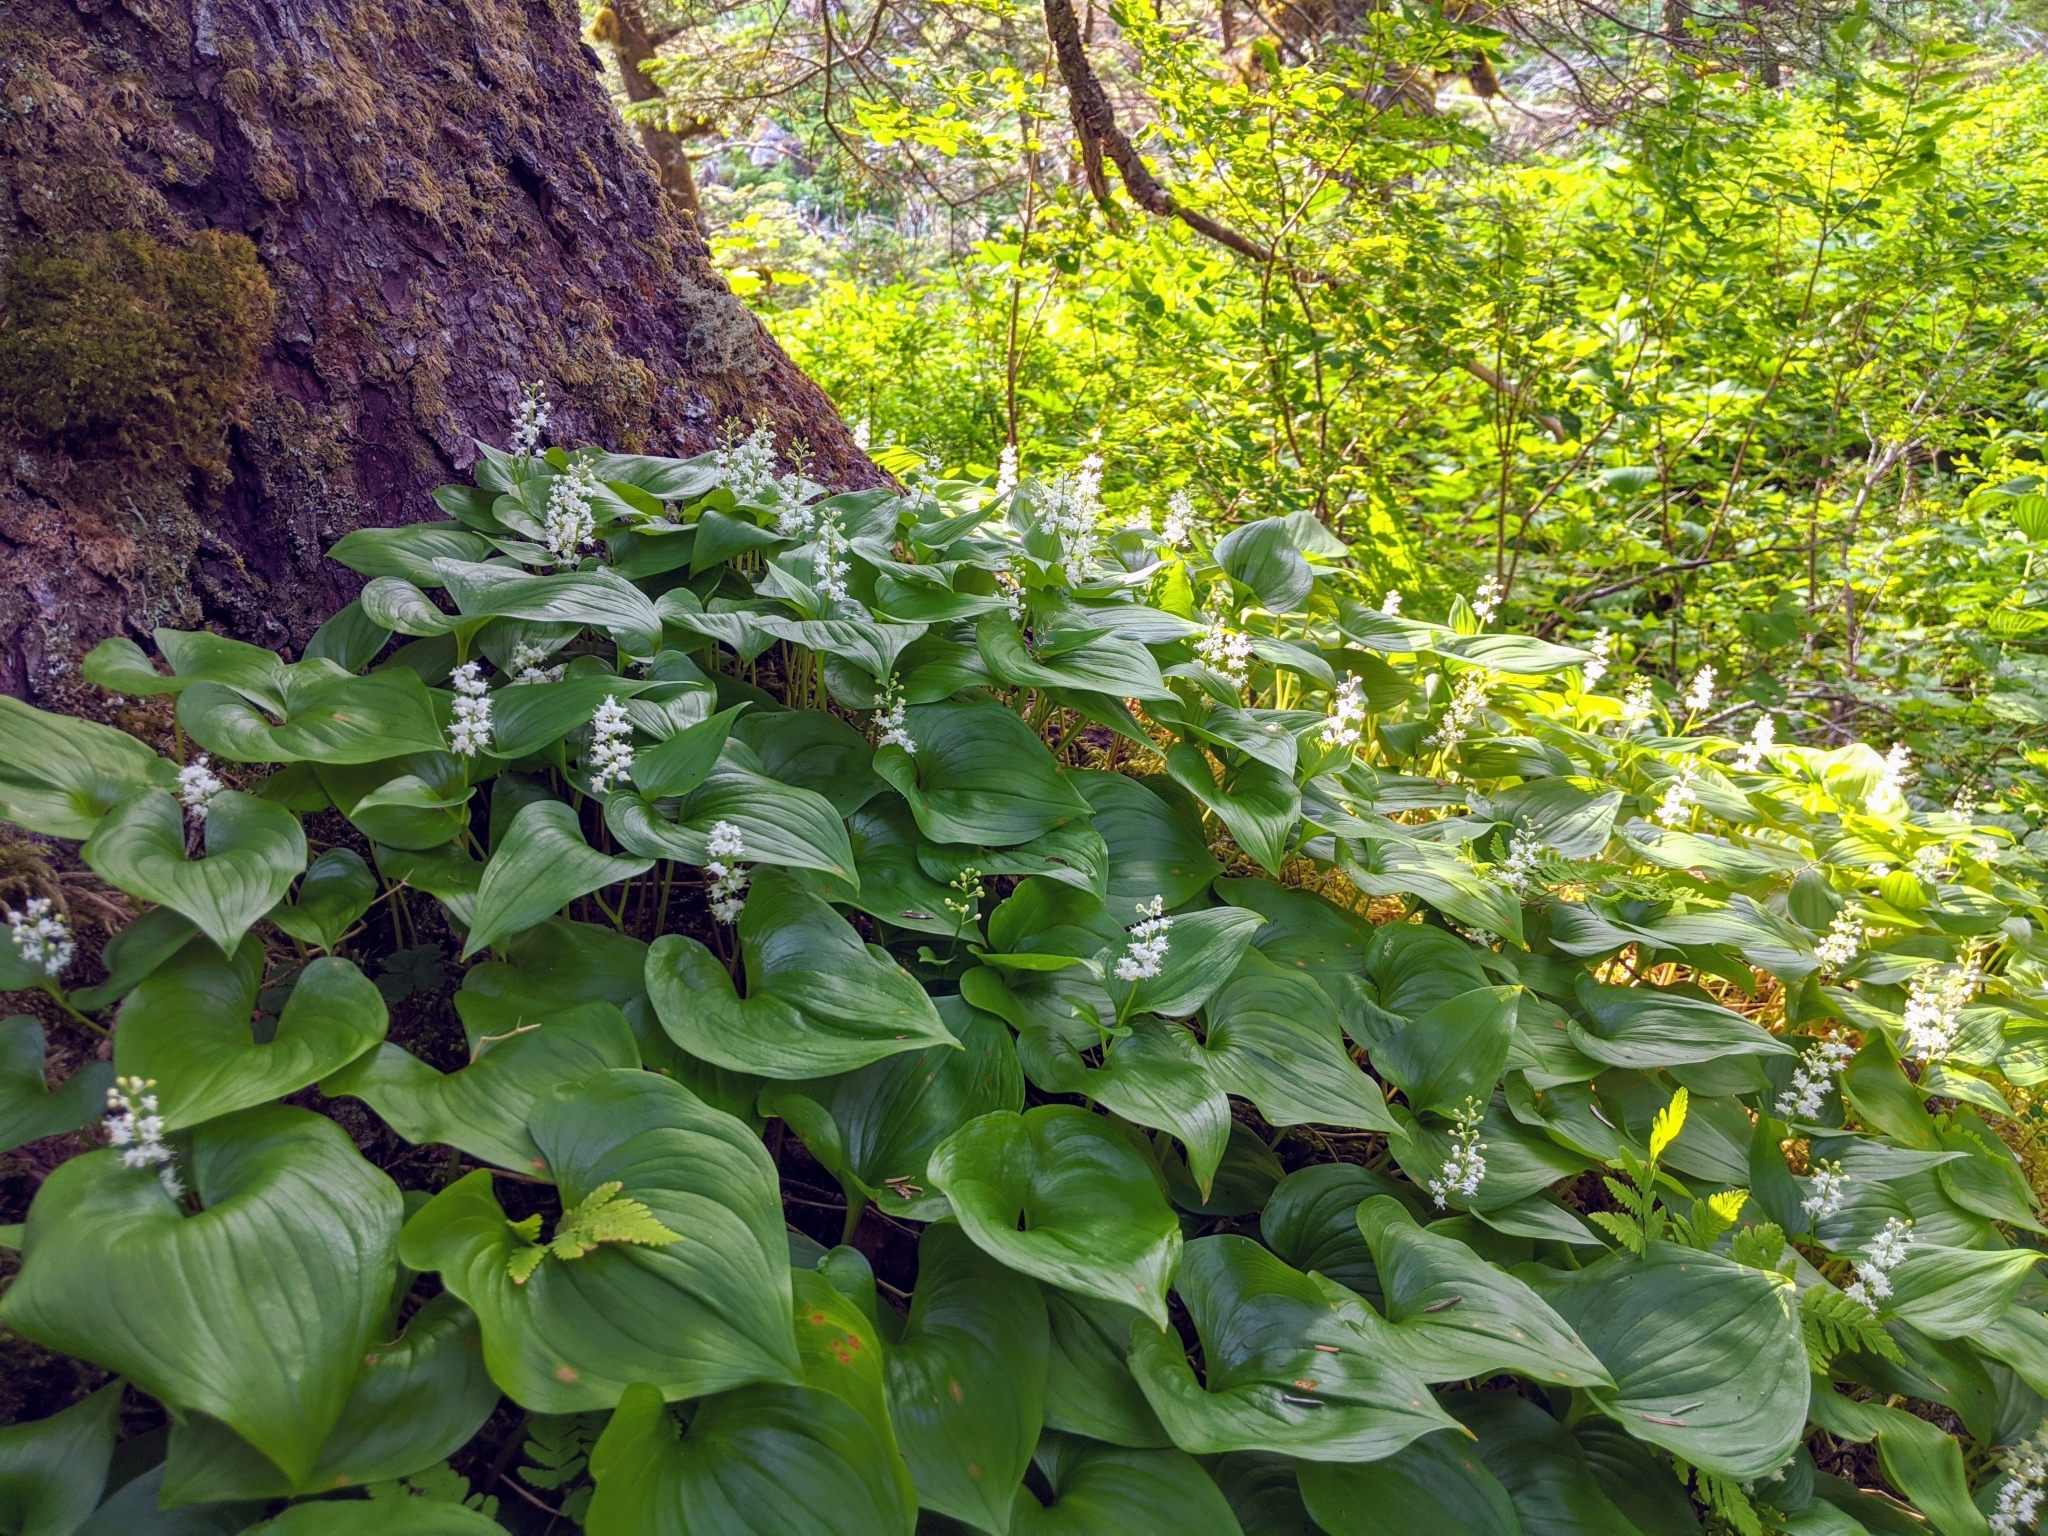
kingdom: Plantae
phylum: Tracheophyta
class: Liliopsida
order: Asparagales
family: Asparagaceae
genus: Maianthemum
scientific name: Maianthemum dilatatum
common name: False lily-of-the-valley
